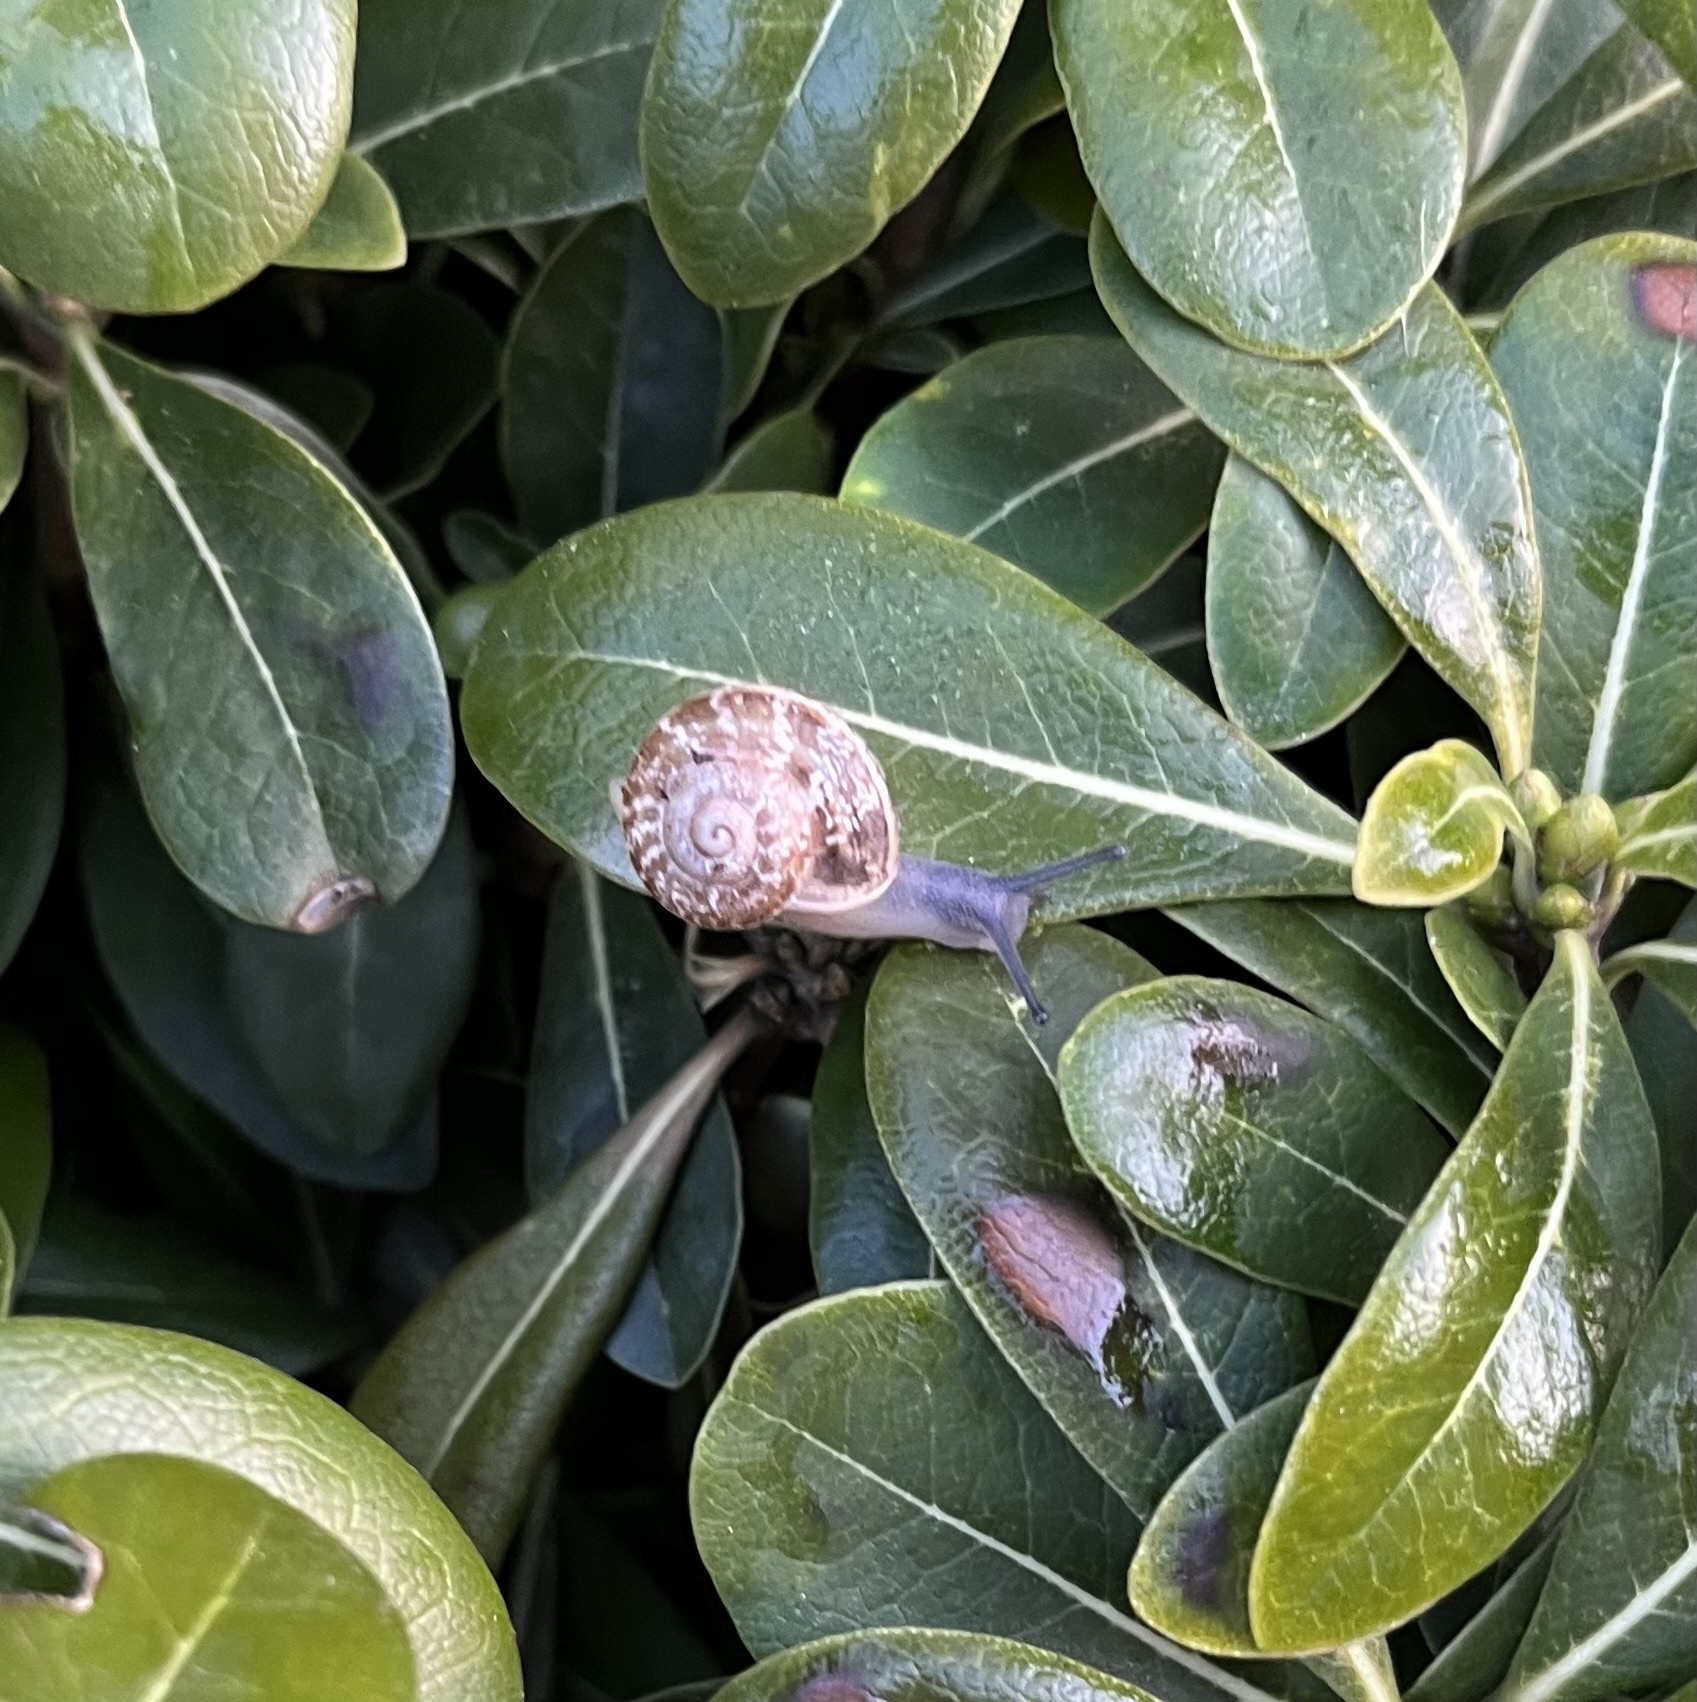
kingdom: Animalia
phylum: Mollusca
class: Gastropoda
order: Stylommatophora
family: Helicidae
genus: Eobania
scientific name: Eobania vermiculata
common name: Chocolateband snail
